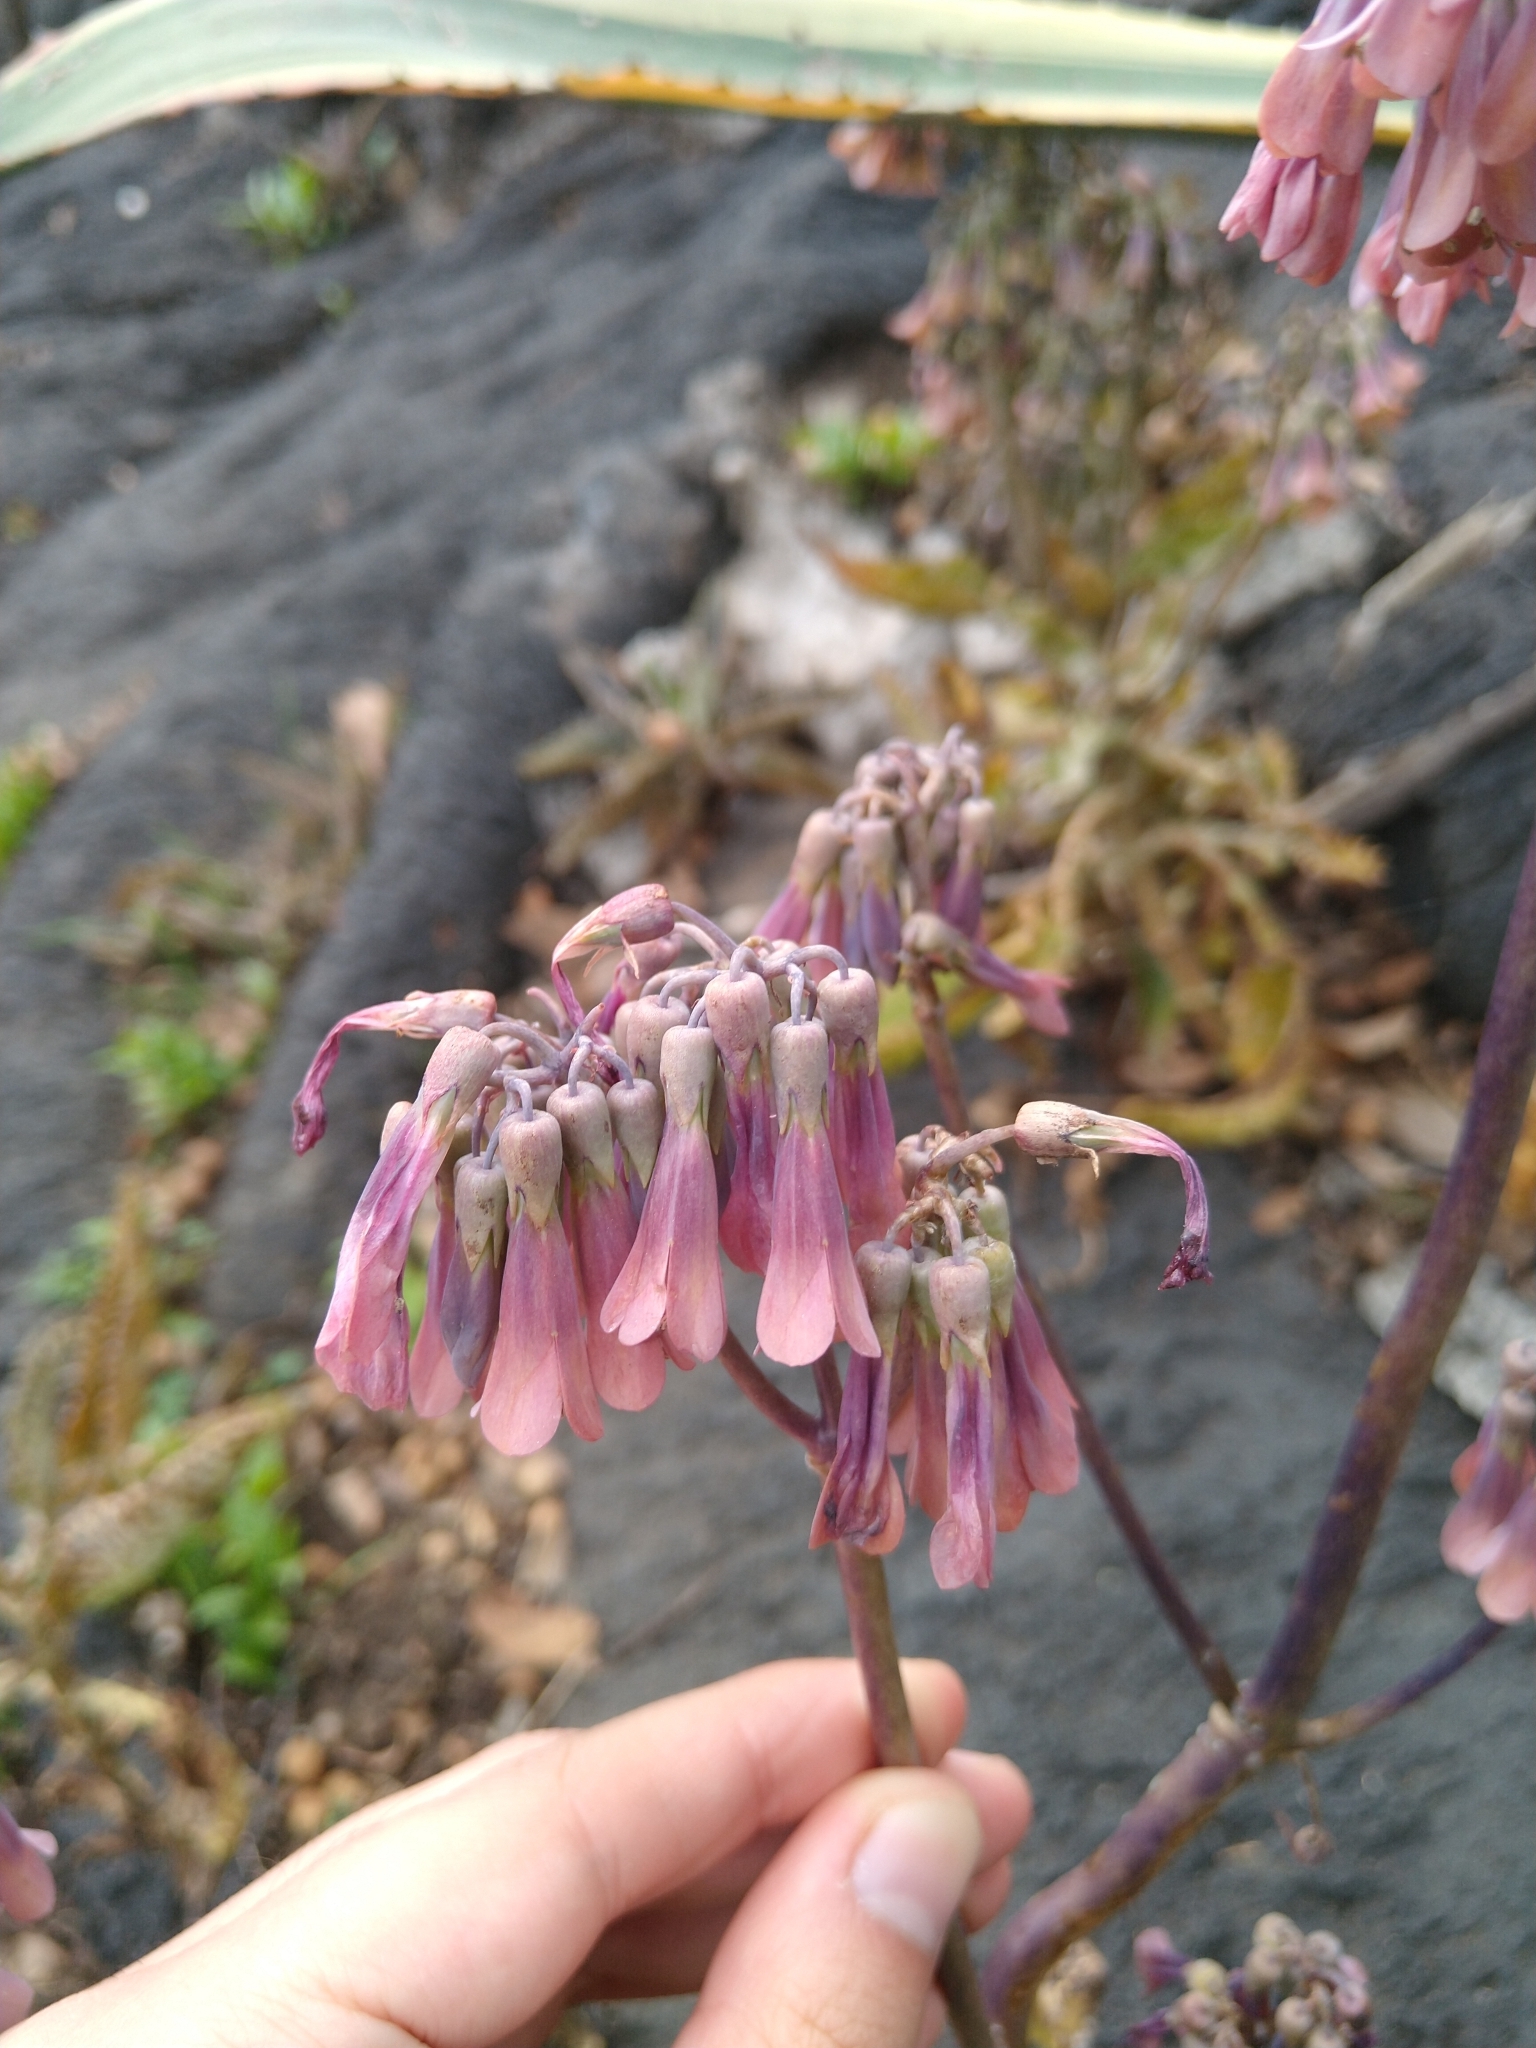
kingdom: Plantae
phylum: Tracheophyta
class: Magnoliopsida
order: Saxifragales
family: Crassulaceae
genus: Kalanchoe
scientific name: Kalanchoe daigremontiana
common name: Devil's backbone
